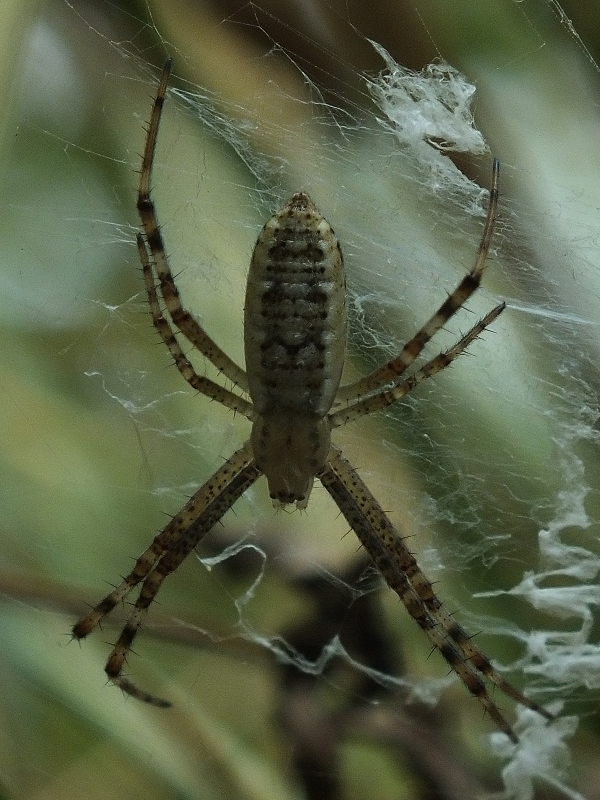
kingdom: Animalia
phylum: Arthropoda
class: Arachnida
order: Araneae
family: Araneidae
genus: Argiope
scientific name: Argiope bruennichi
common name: Wasp spider
